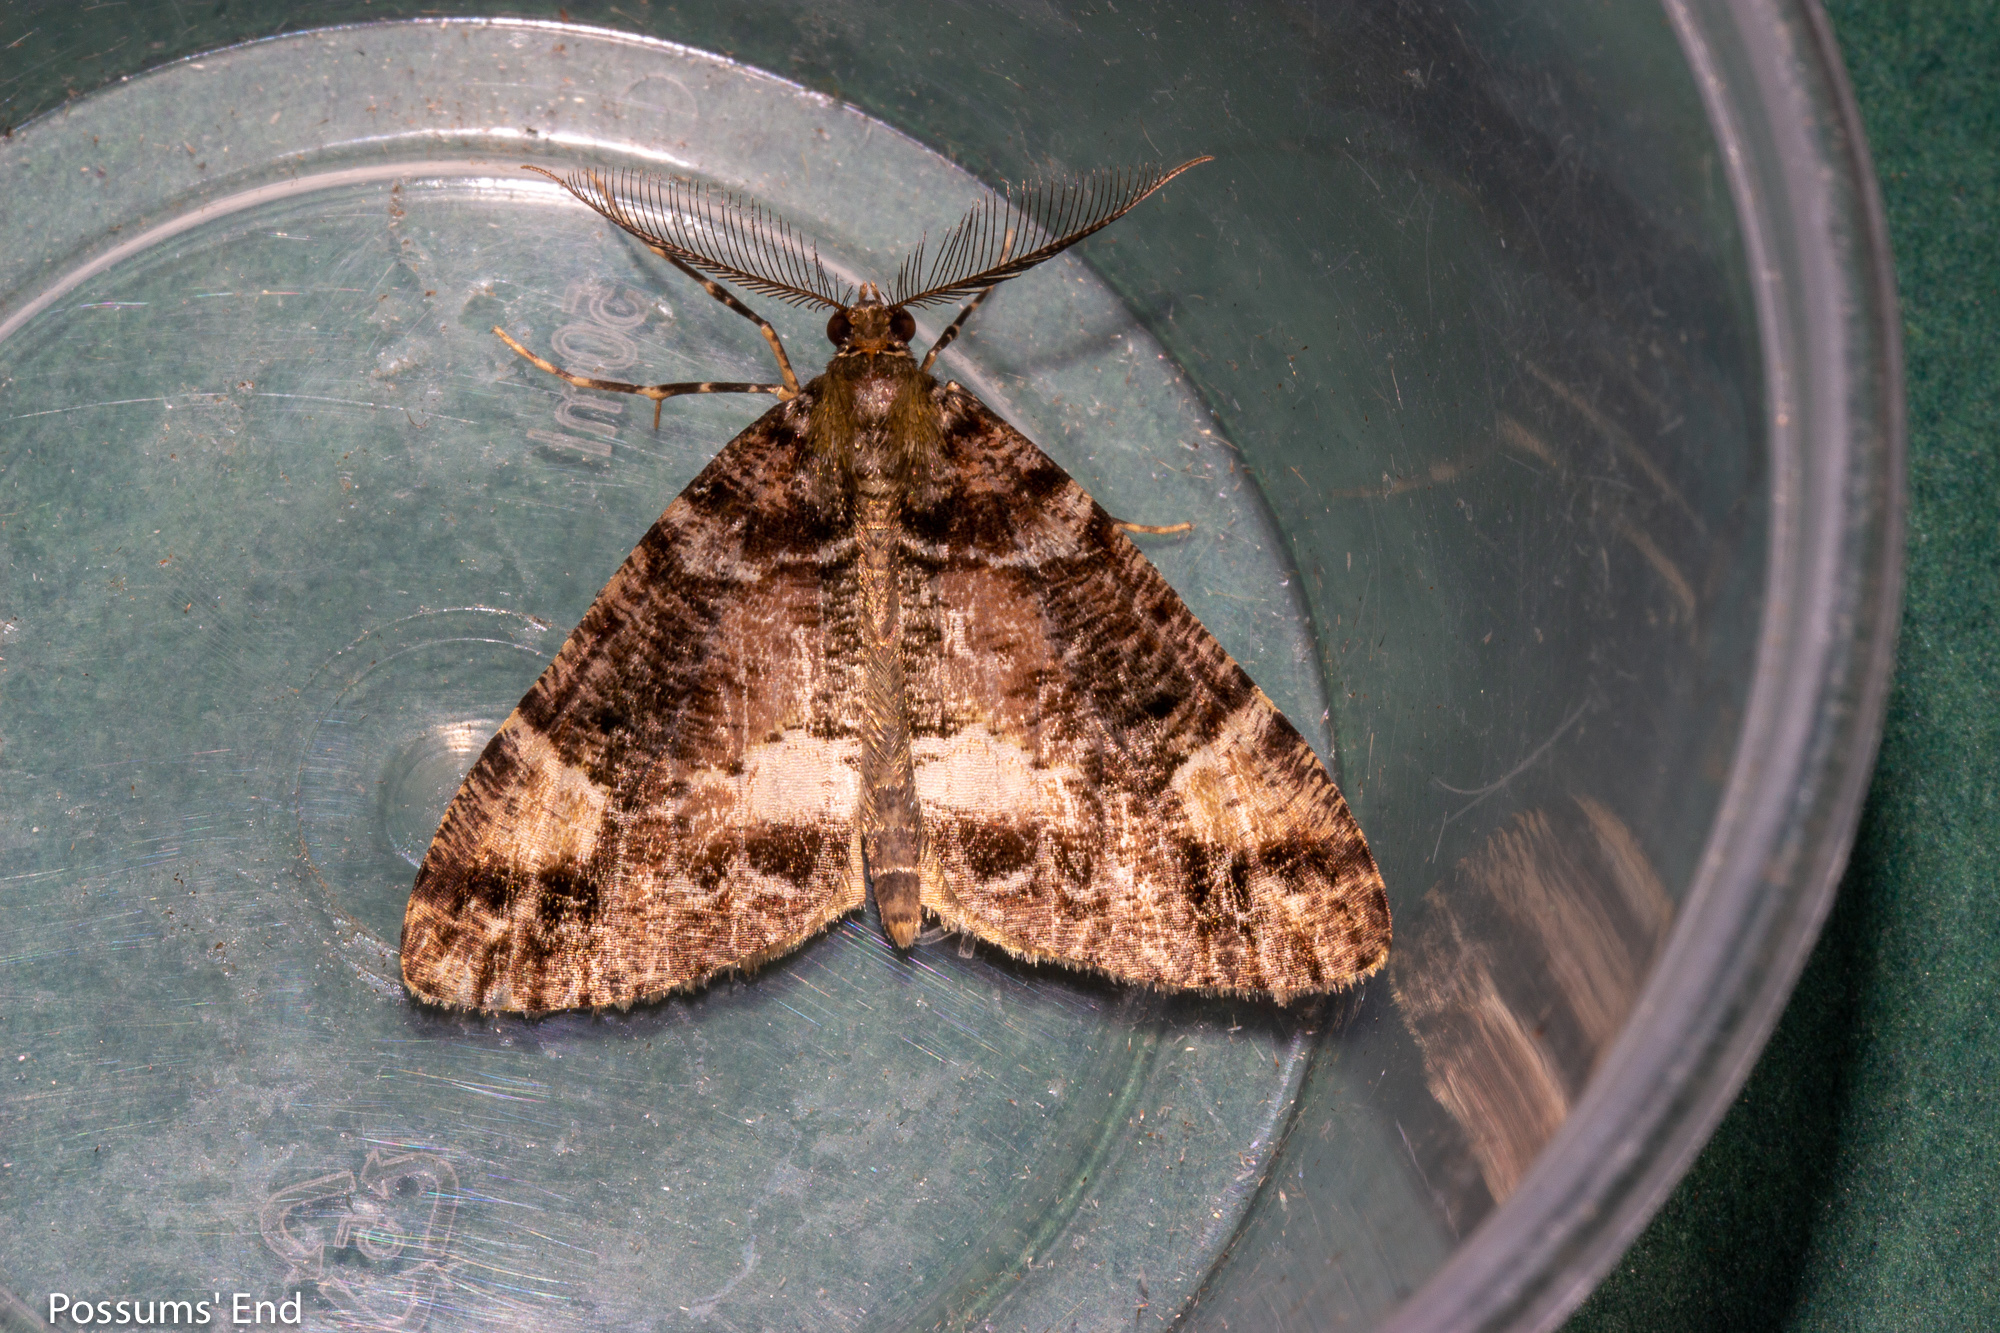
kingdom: Animalia
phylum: Arthropoda
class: Insecta
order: Lepidoptera
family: Geometridae
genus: Pseudocoremia
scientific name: Pseudocoremia productata
